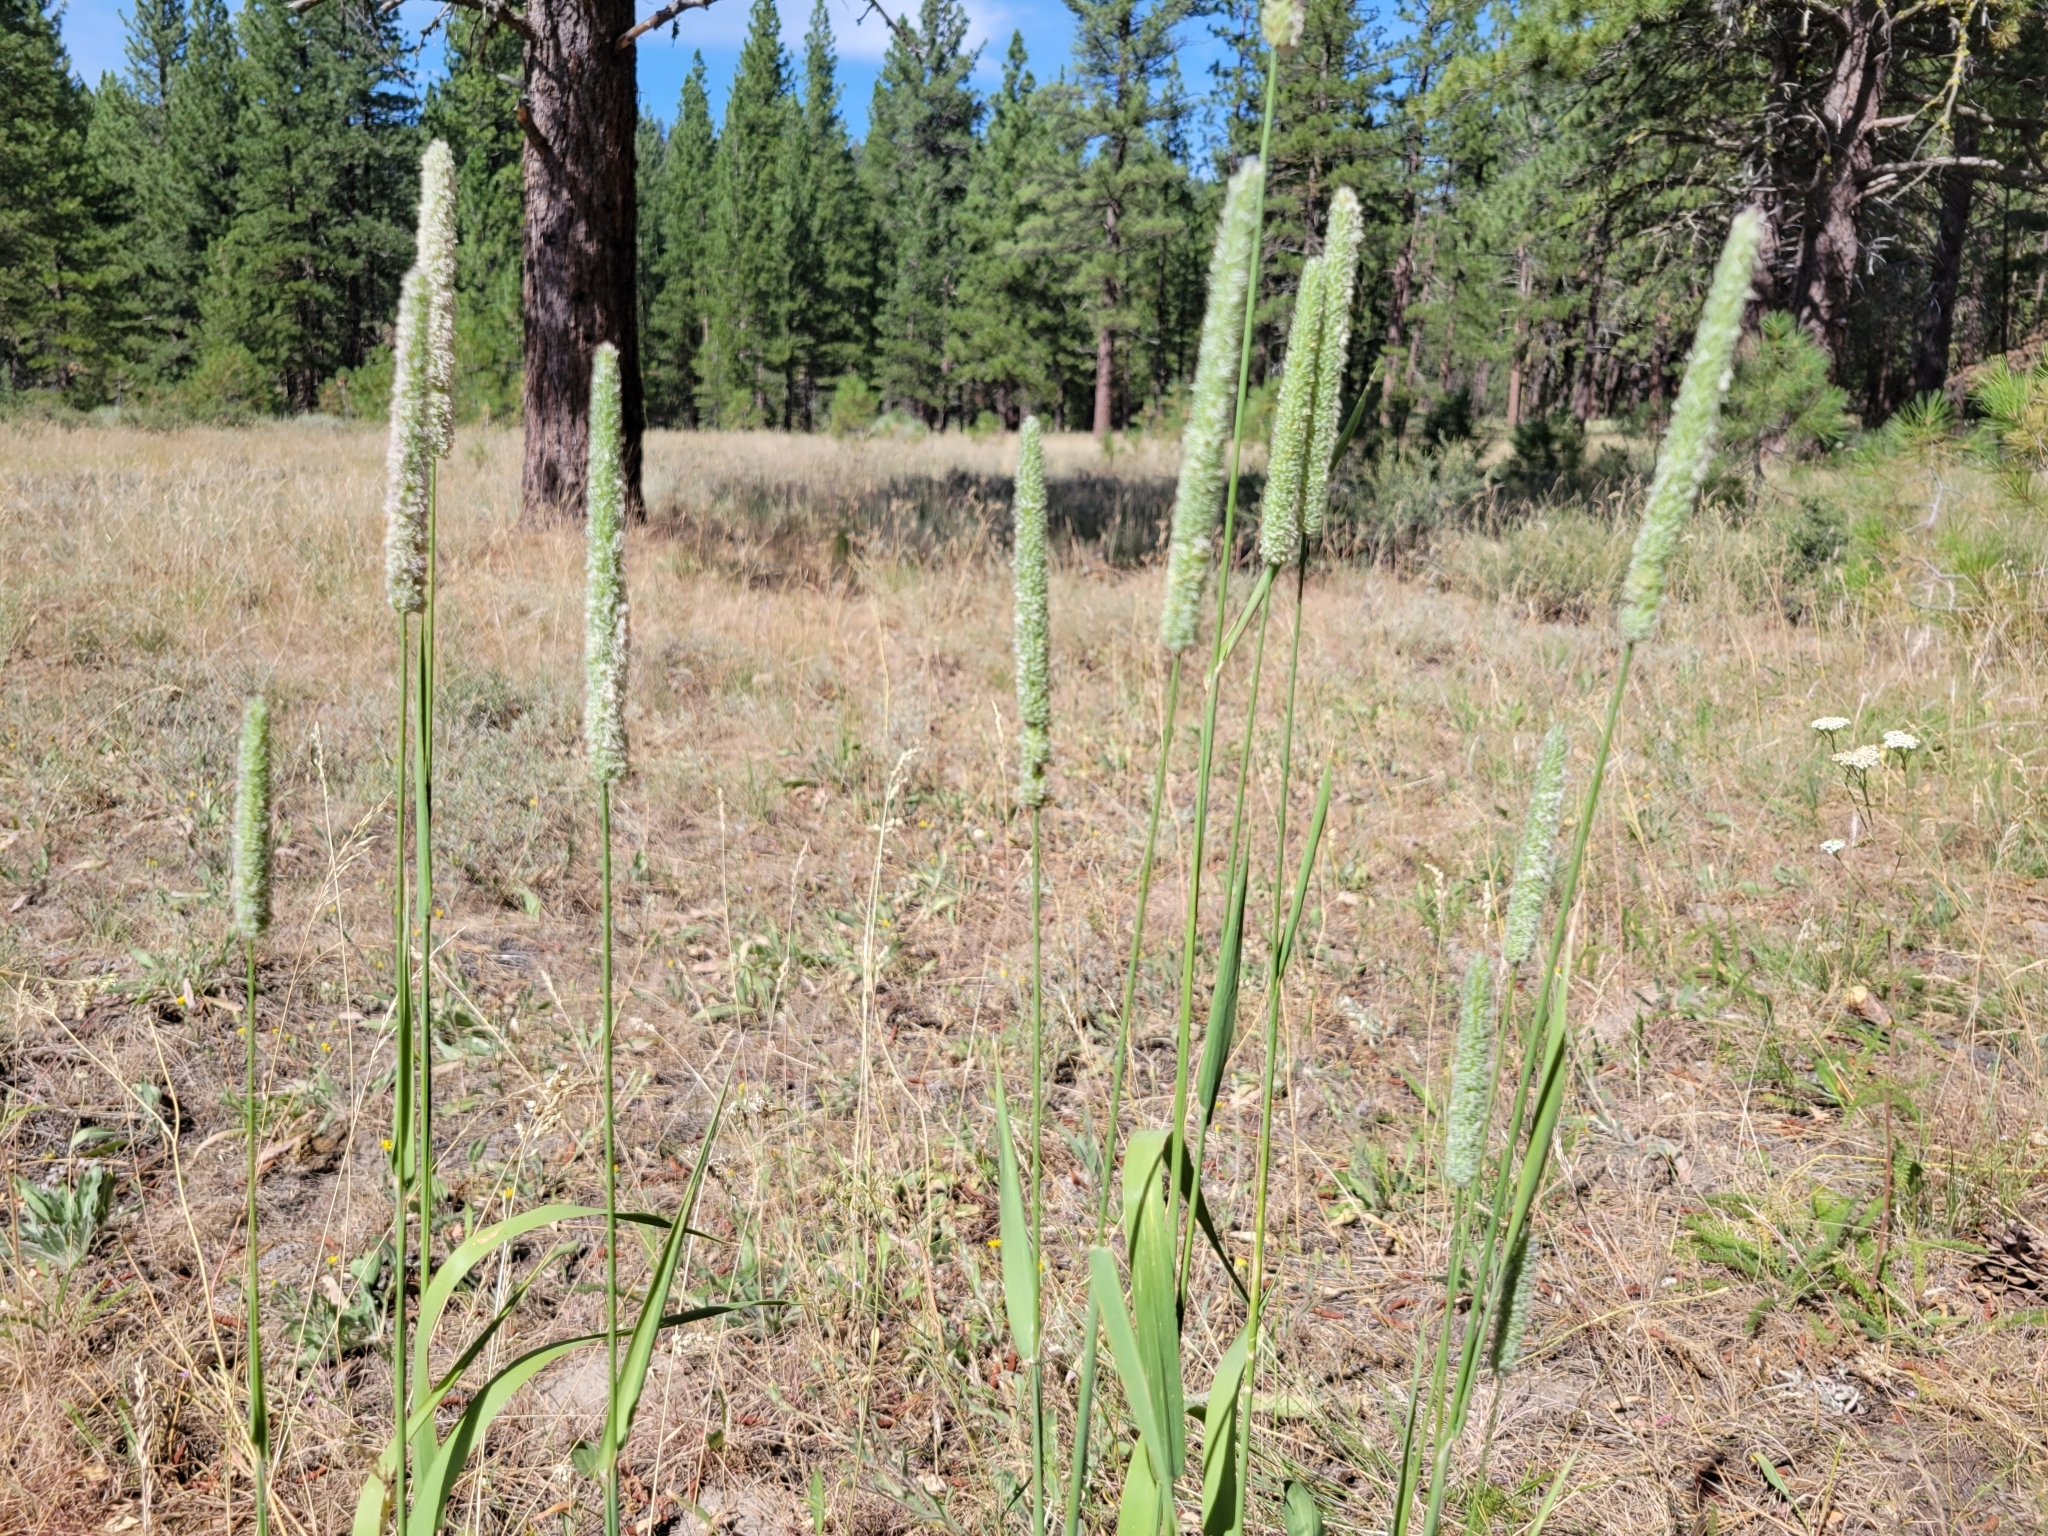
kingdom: Plantae
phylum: Tracheophyta
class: Liliopsida
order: Poales
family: Poaceae
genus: Phleum
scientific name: Phleum pratense
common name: Timothy grass
